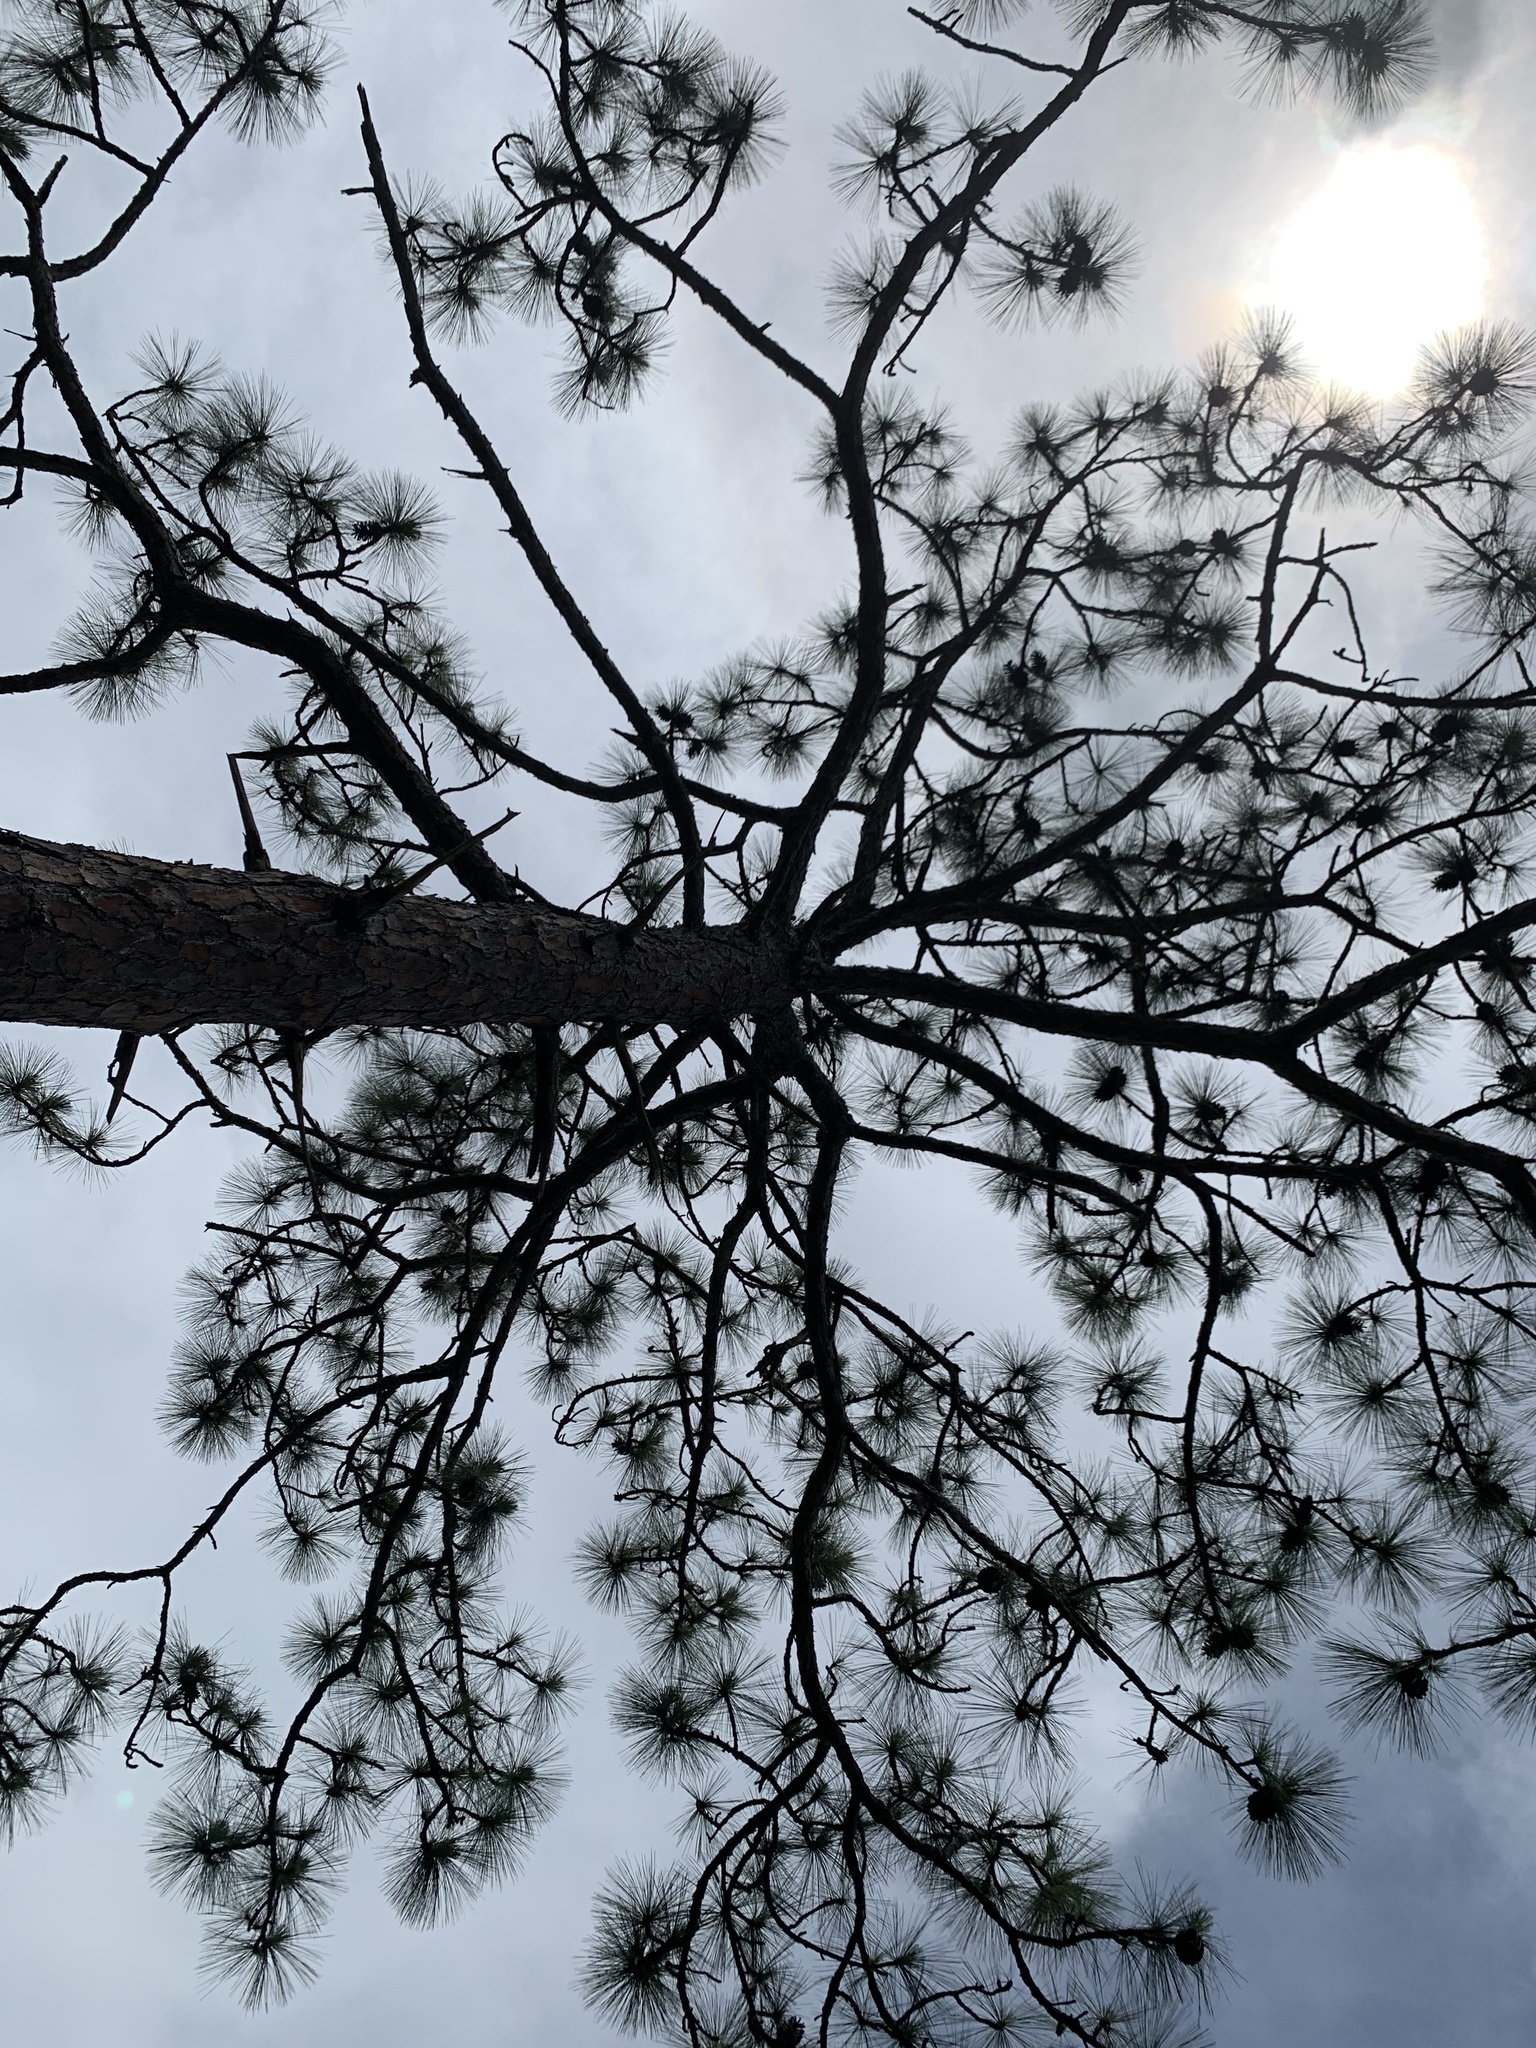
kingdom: Plantae
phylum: Tracheophyta
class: Pinopsida
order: Pinales
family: Pinaceae
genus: Pinus
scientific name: Pinus palustris
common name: Longleaf pine
